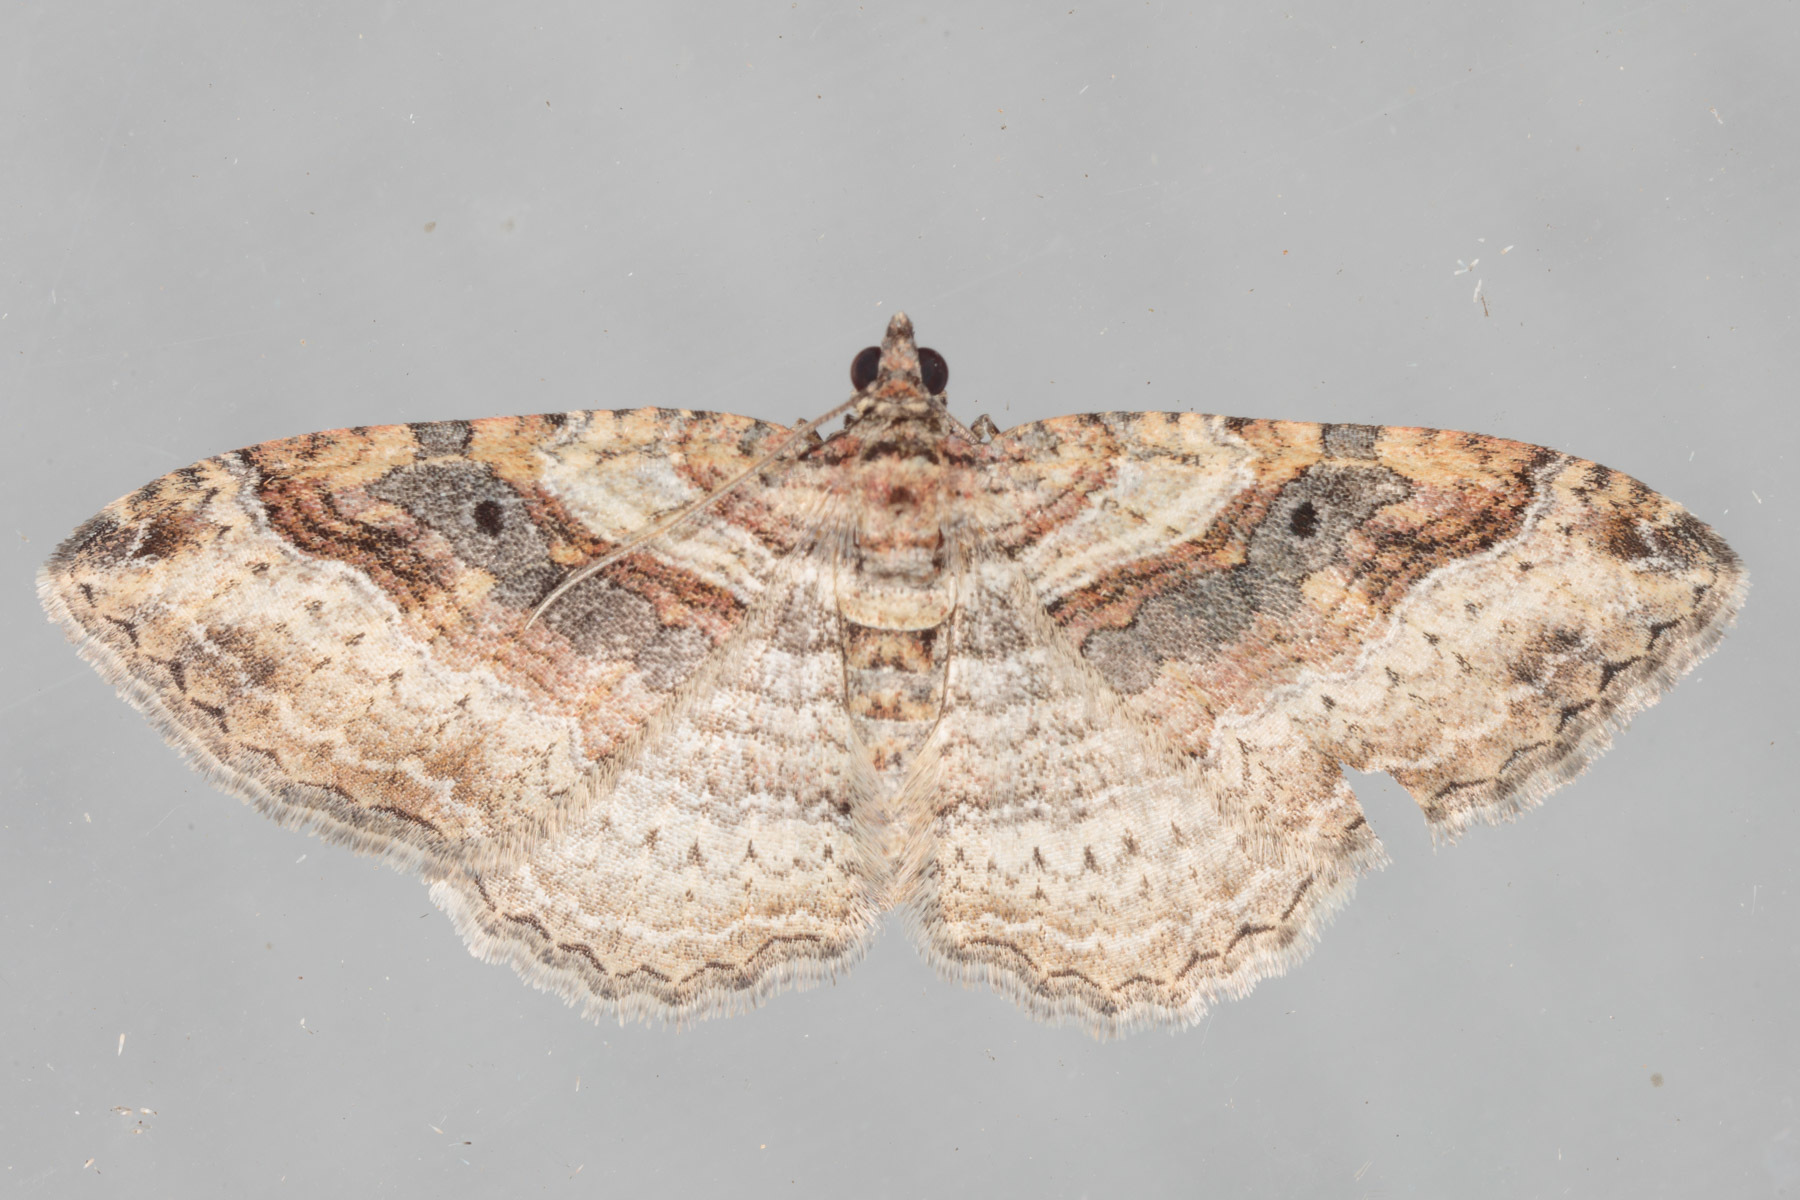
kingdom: Animalia
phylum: Arthropoda
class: Insecta
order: Lepidoptera
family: Geometridae
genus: Costaconvexa
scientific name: Costaconvexa centrostrigaria
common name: Bent-line carpet
